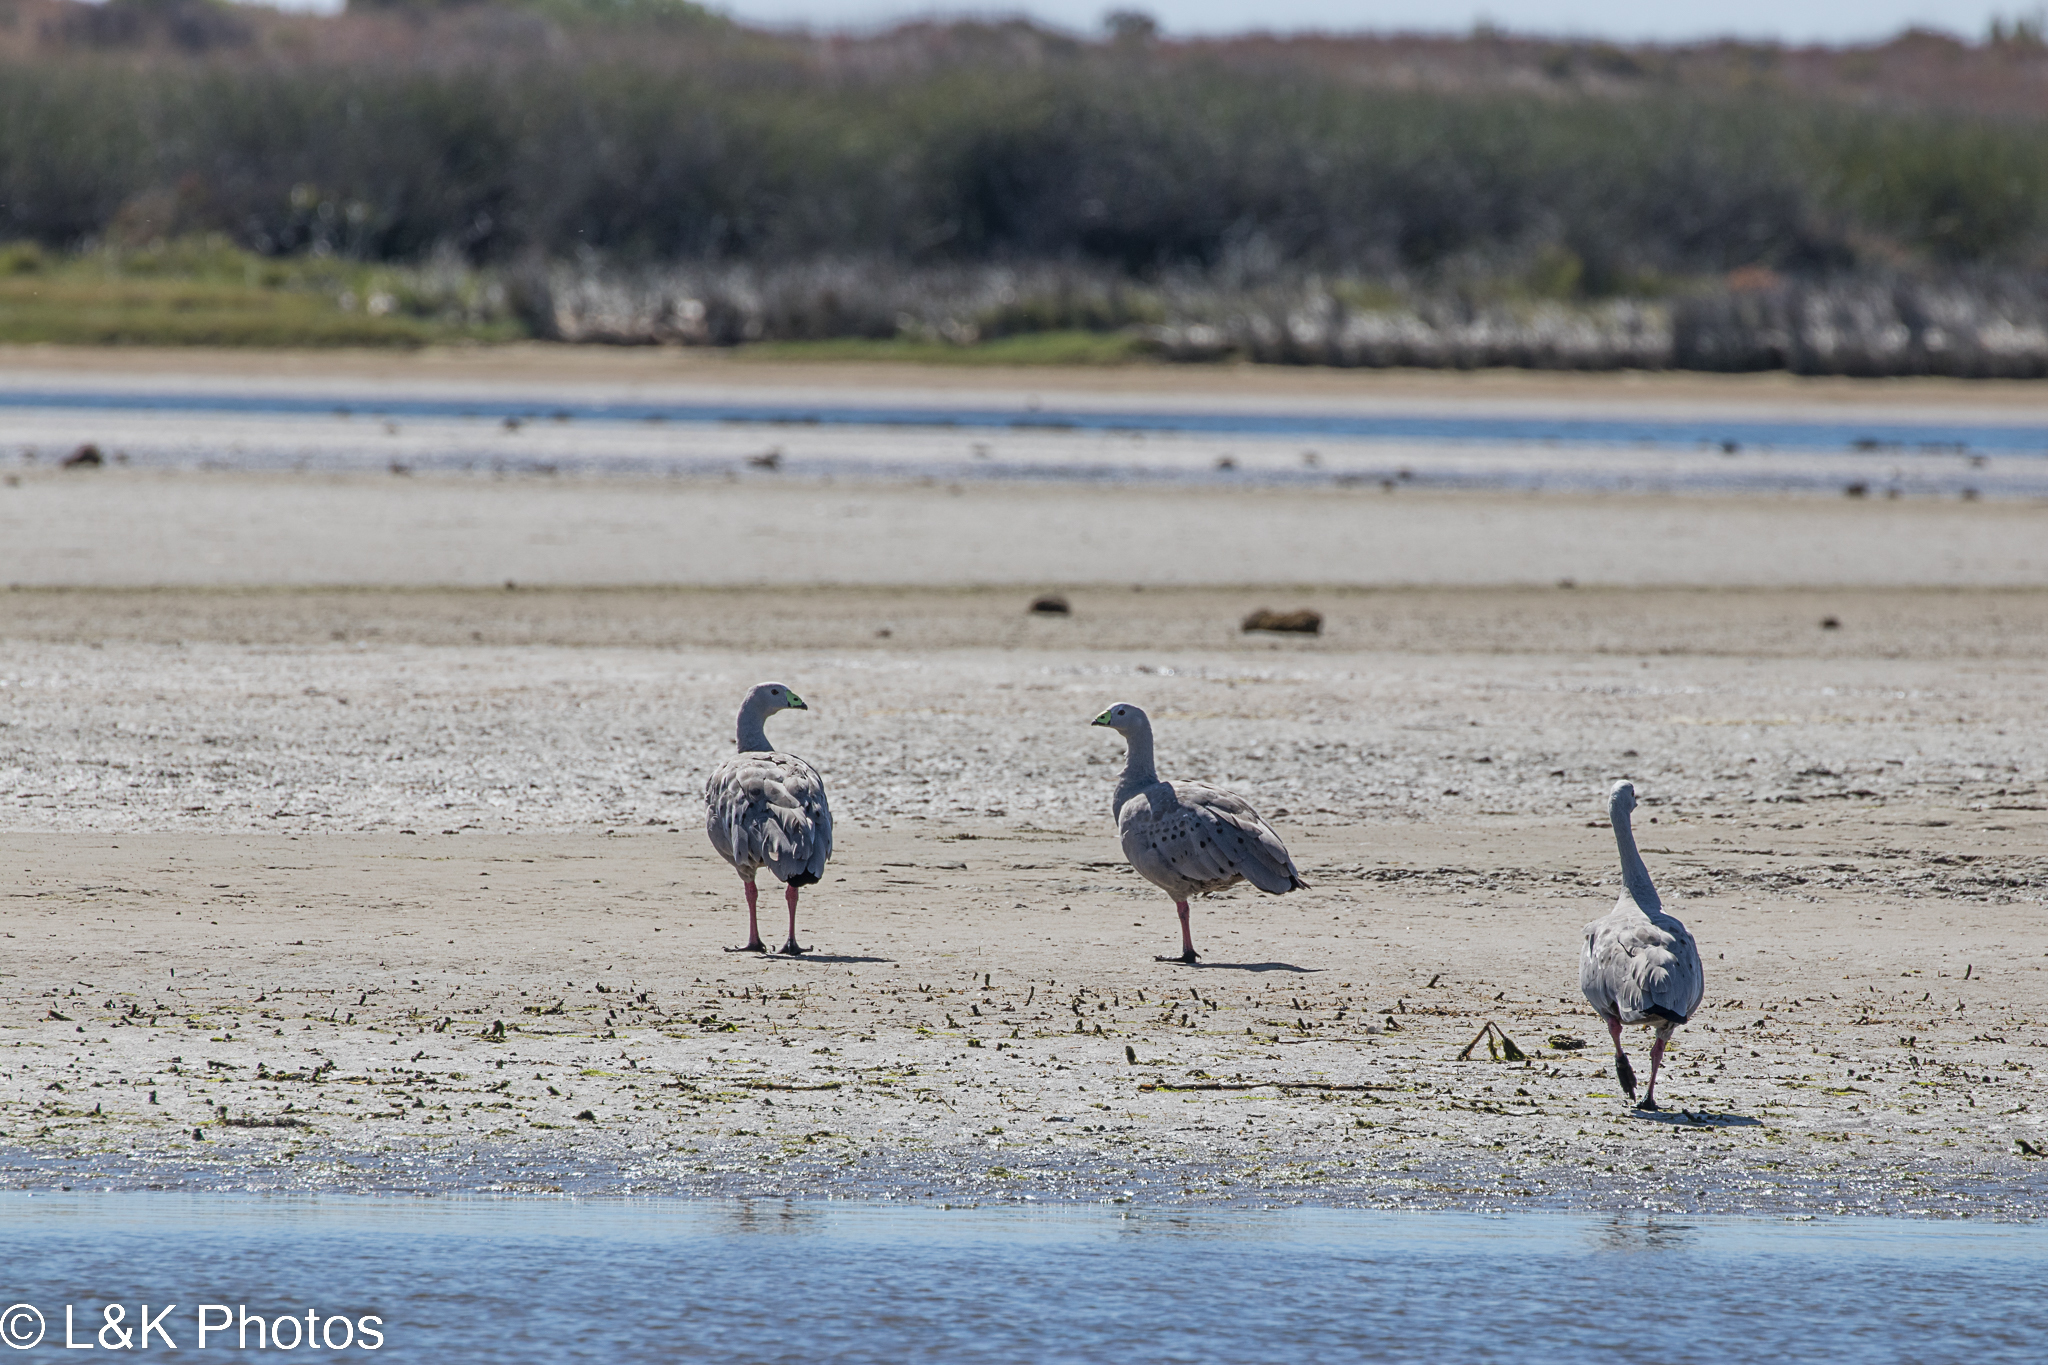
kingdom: Animalia
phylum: Chordata
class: Aves
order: Anseriformes
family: Anatidae
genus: Cereopsis
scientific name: Cereopsis novaehollandiae
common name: Cape barren goose
